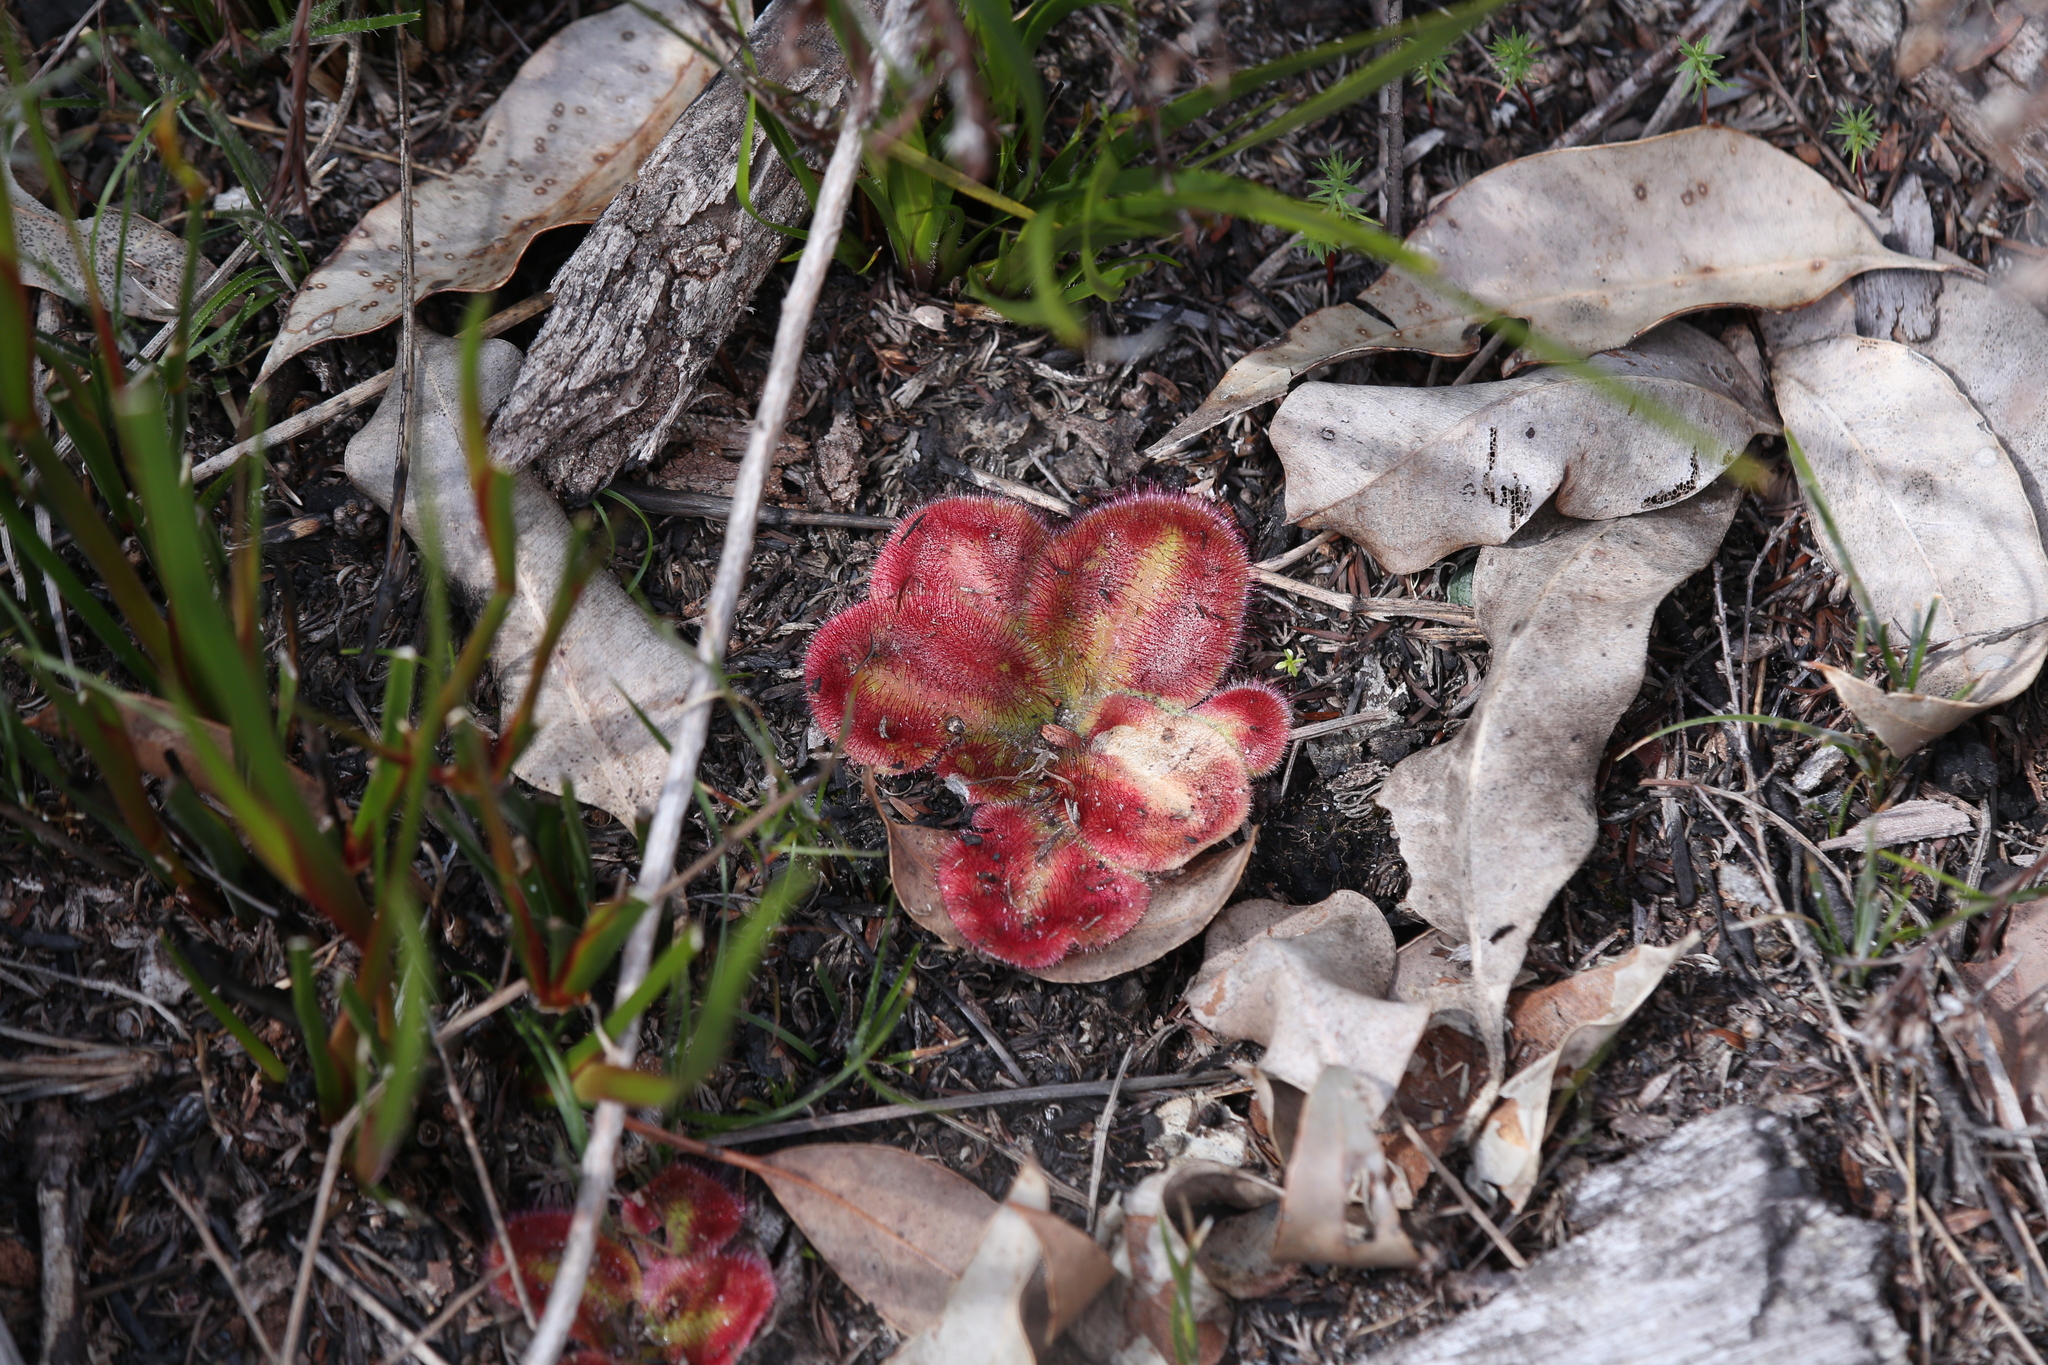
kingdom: Plantae
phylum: Tracheophyta
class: Magnoliopsida
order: Caryophyllales
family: Droseraceae
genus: Drosera
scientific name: Drosera erythrorhiza
